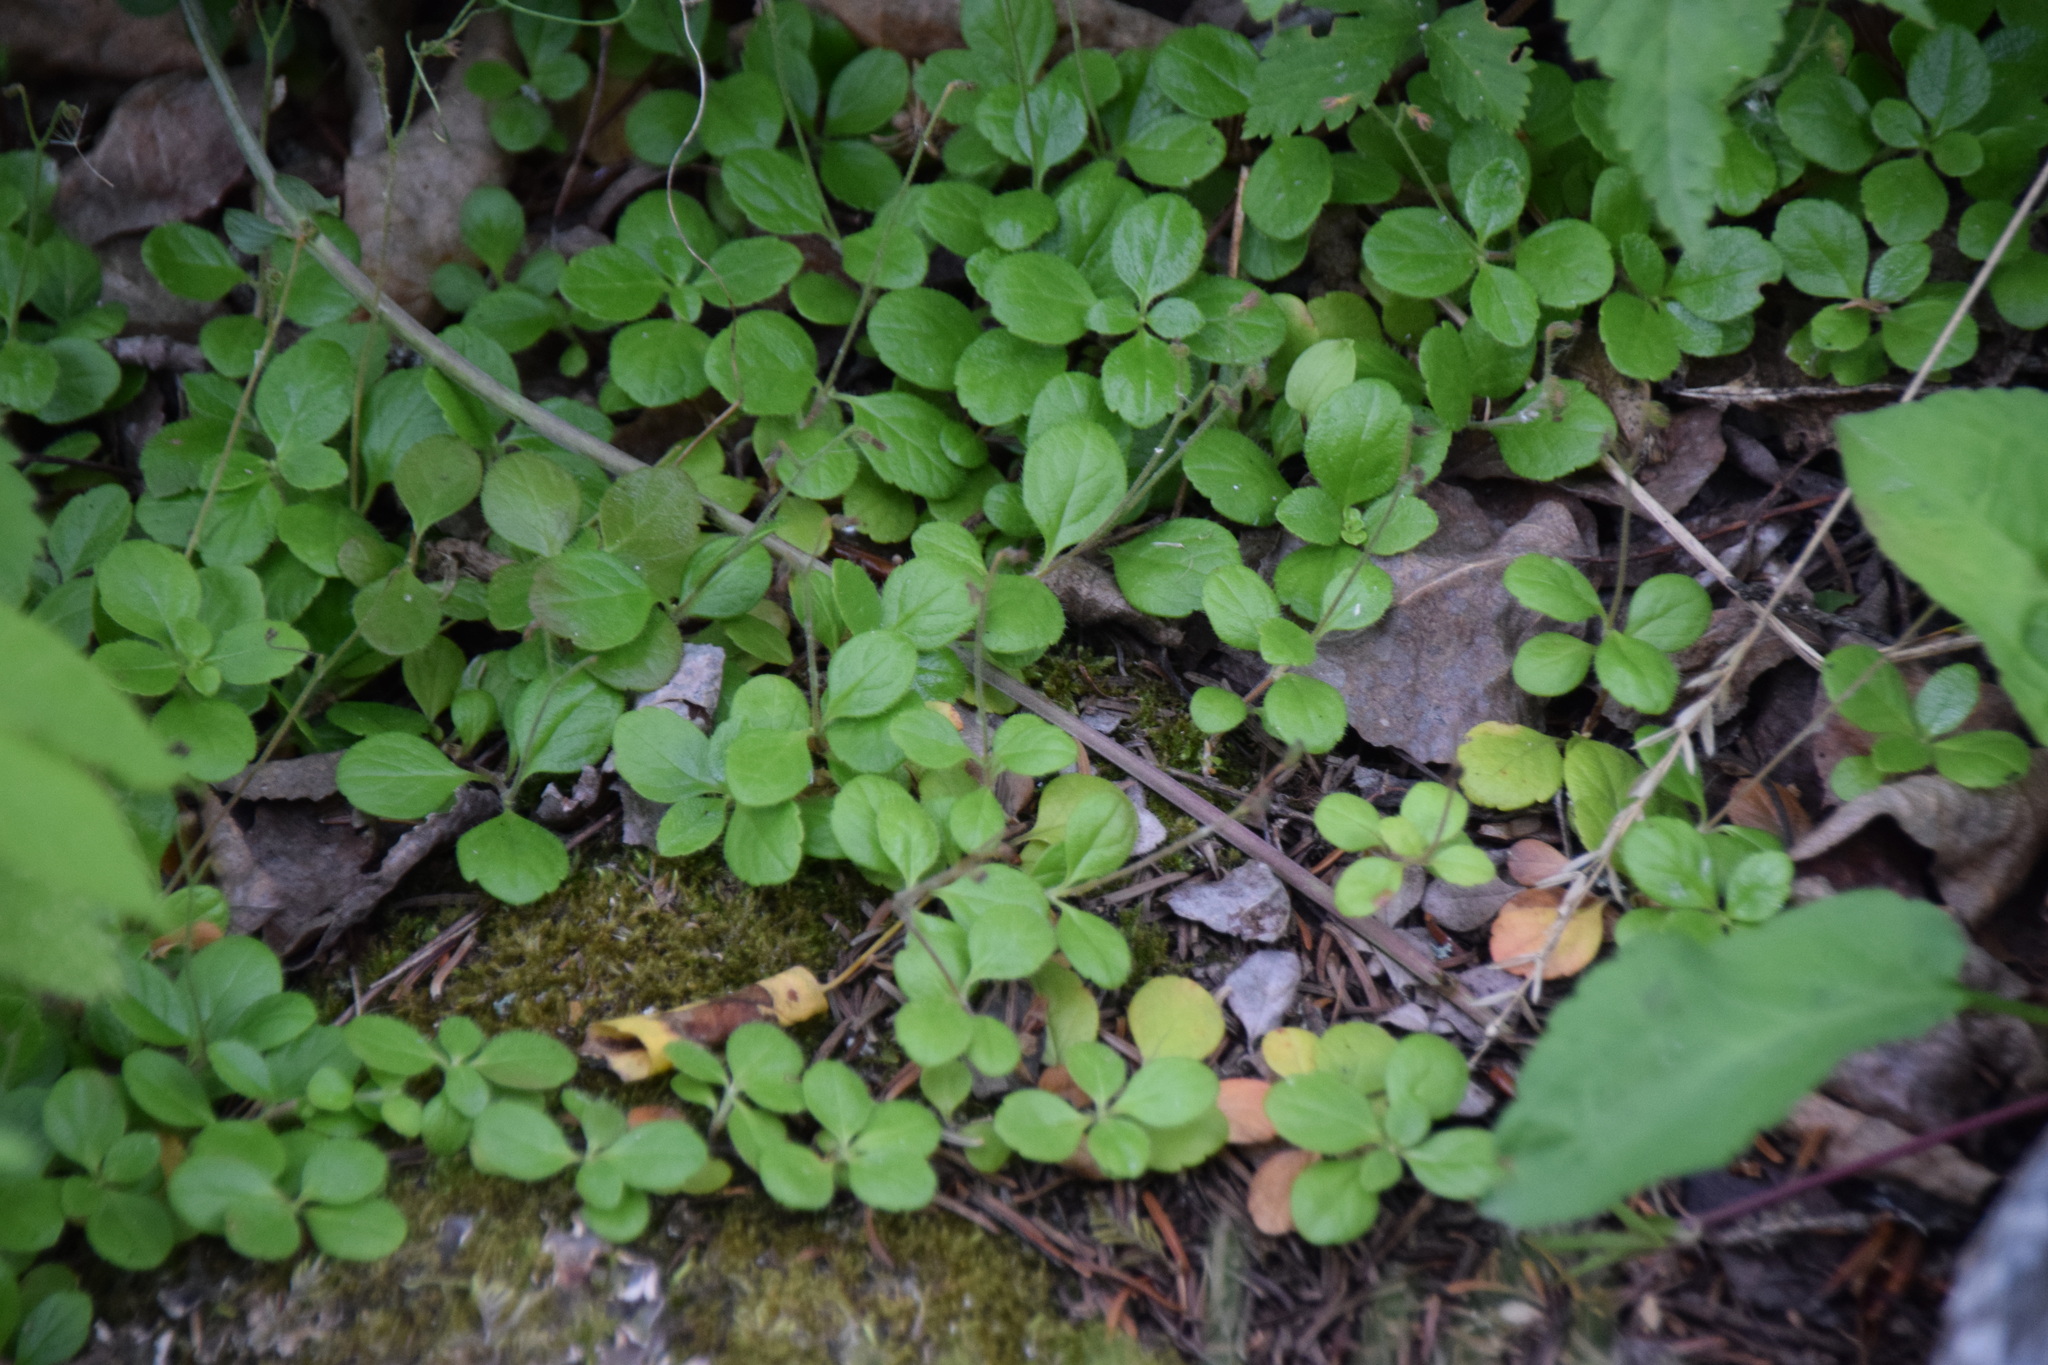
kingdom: Plantae
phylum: Tracheophyta
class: Magnoliopsida
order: Dipsacales
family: Caprifoliaceae
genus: Linnaea
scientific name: Linnaea borealis
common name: Twinflower
